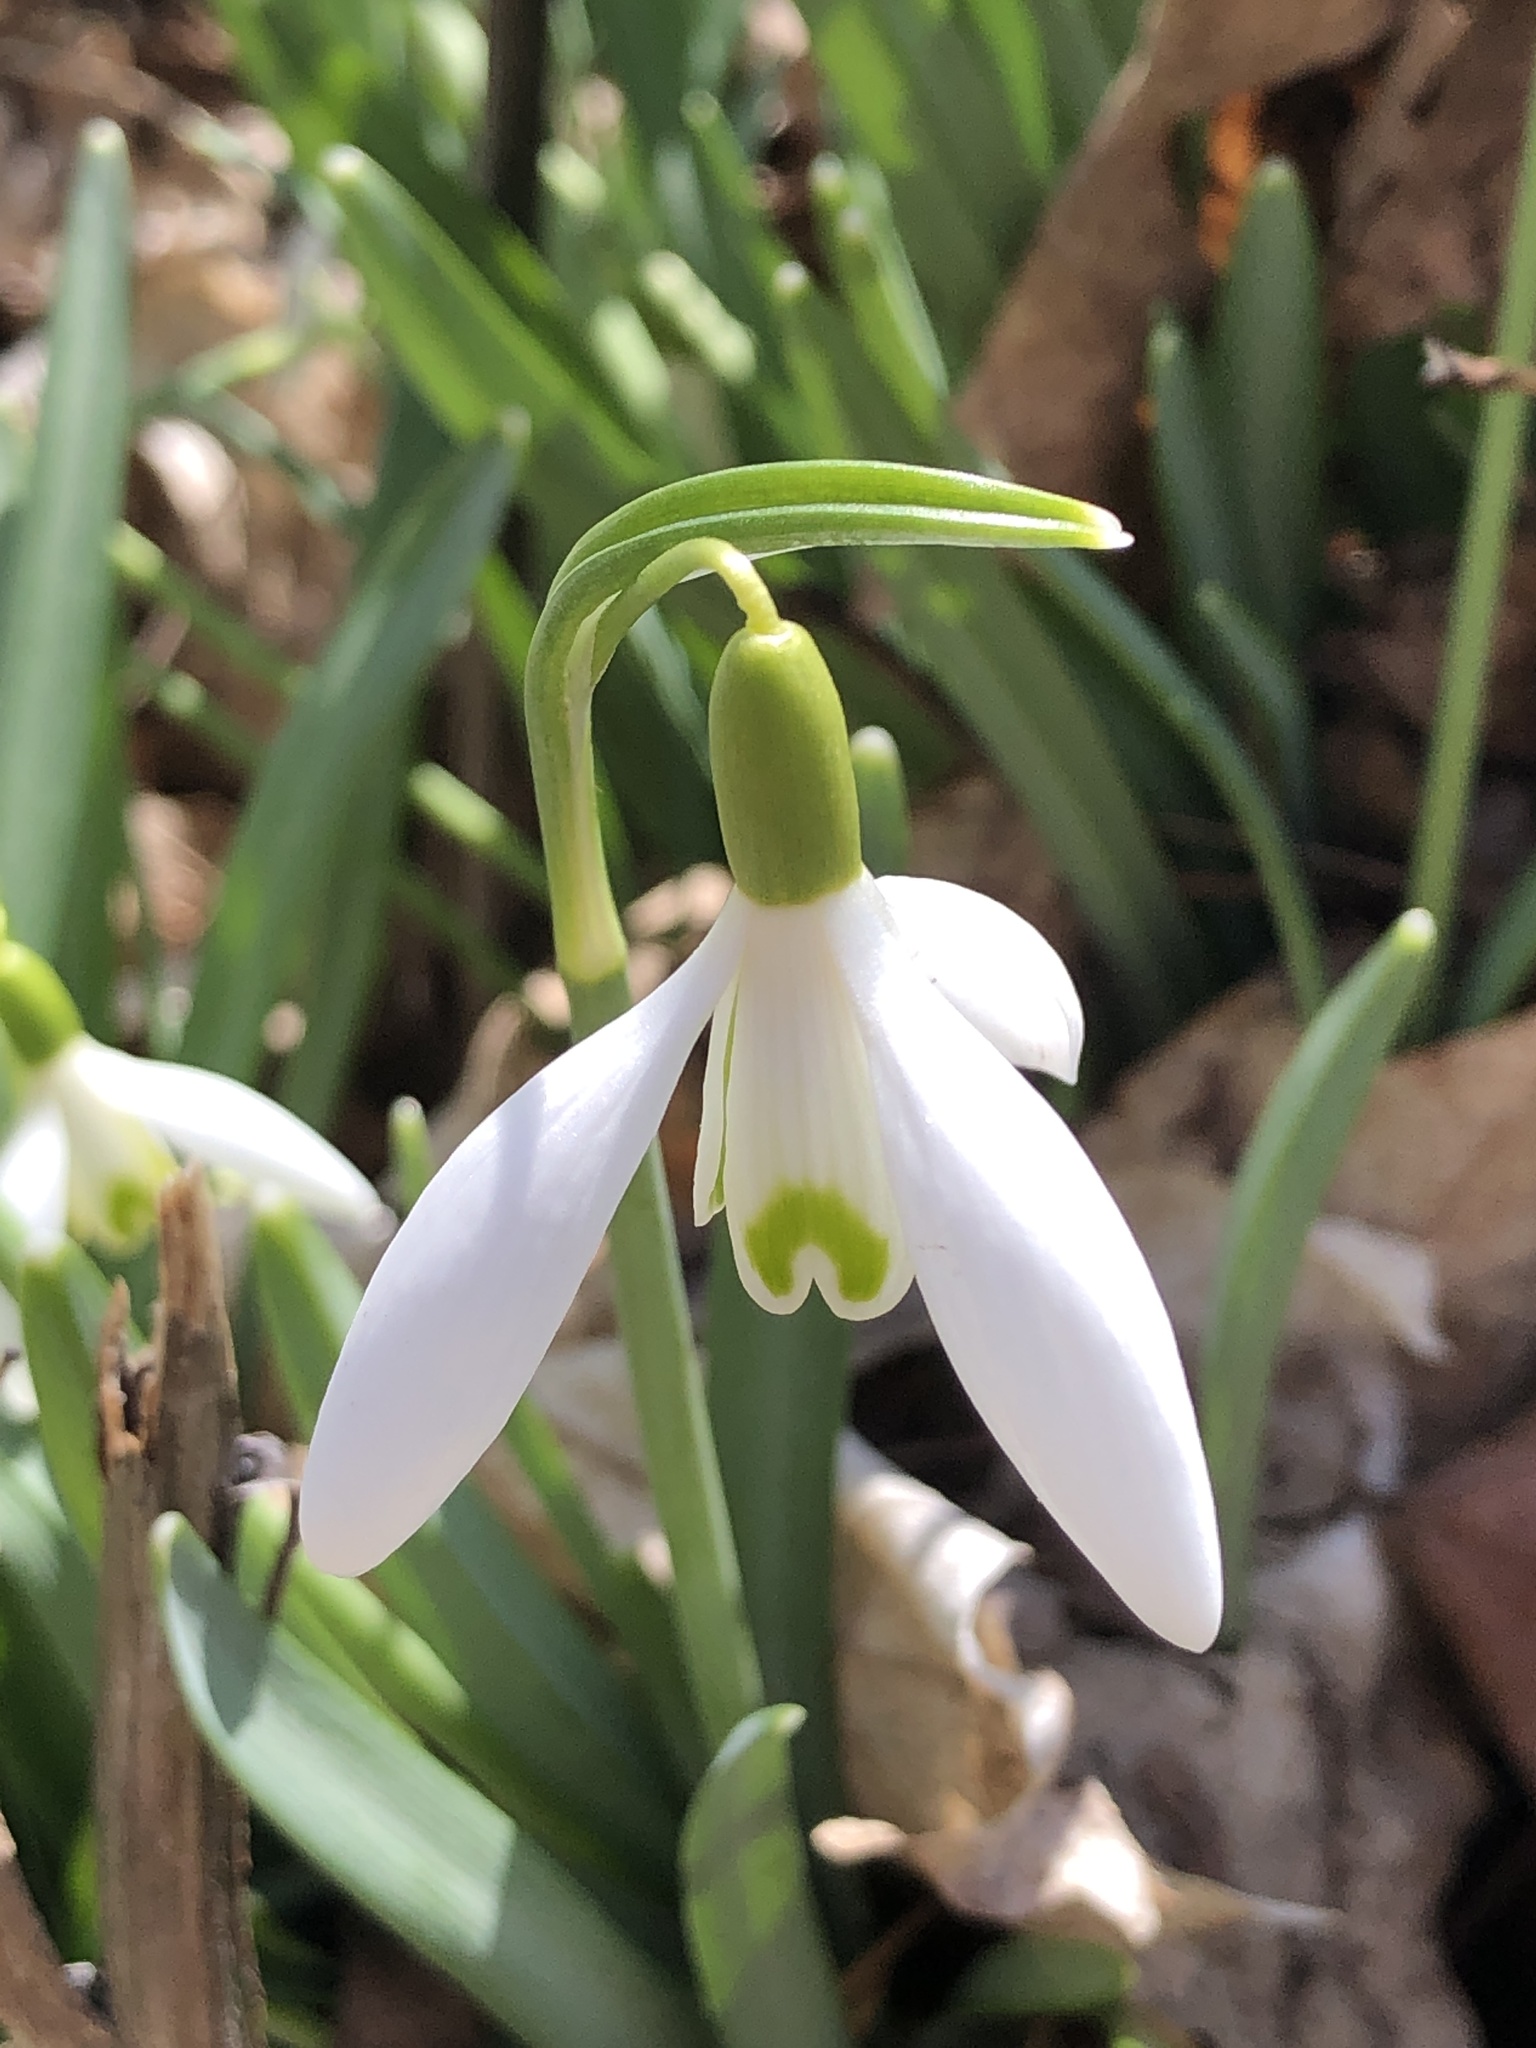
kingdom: Plantae
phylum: Tracheophyta
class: Liliopsida
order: Asparagales
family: Amaryllidaceae
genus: Galanthus
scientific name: Galanthus nivalis
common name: Snowdrop
